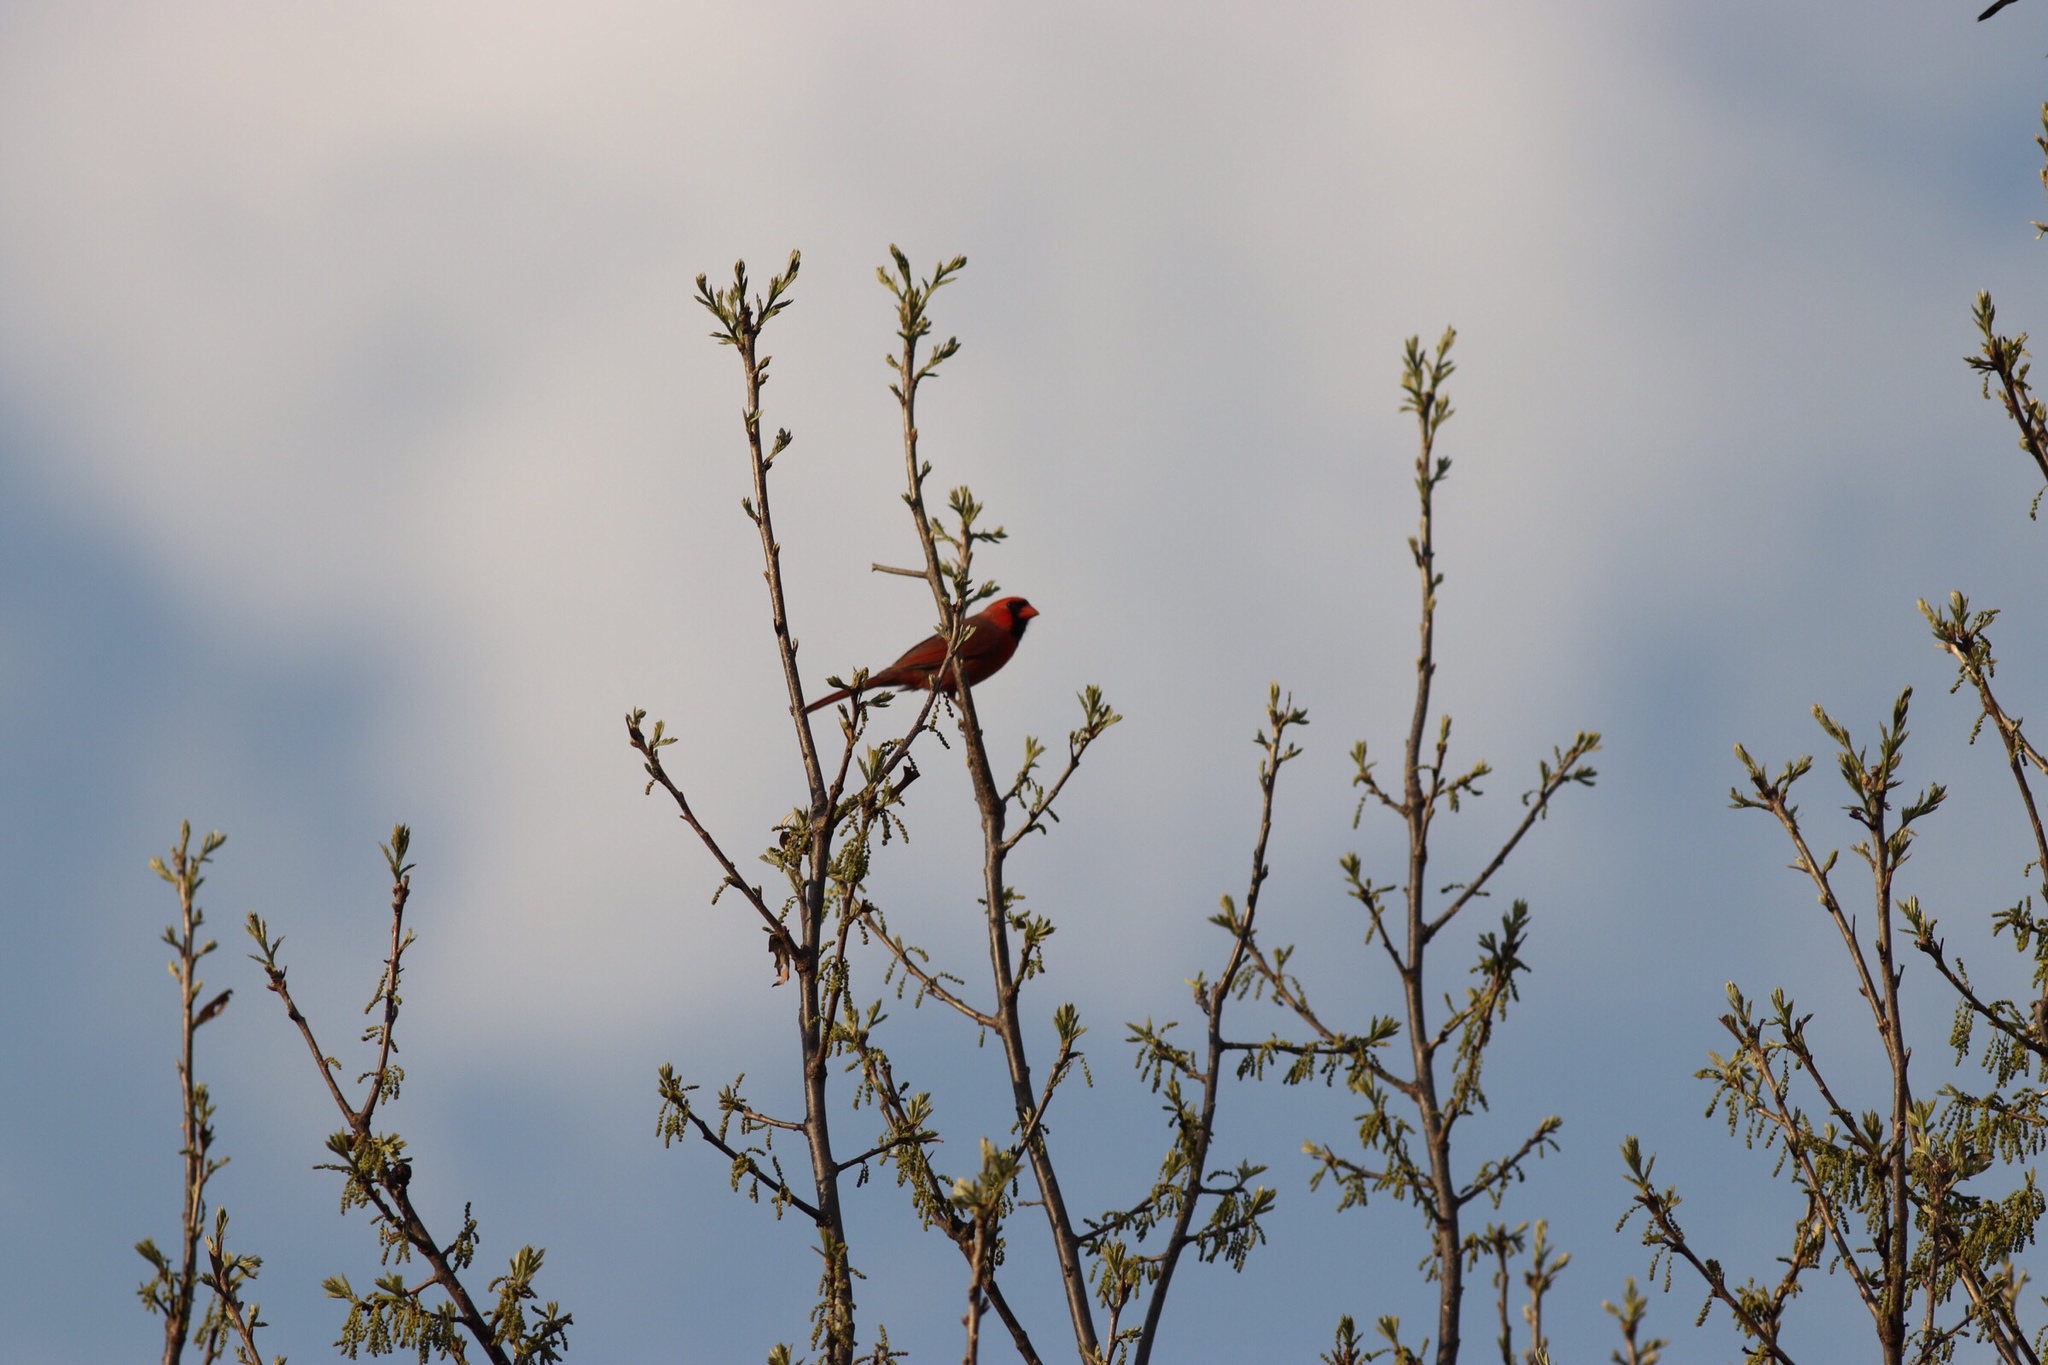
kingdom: Animalia
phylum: Chordata
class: Aves
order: Passeriformes
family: Cardinalidae
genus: Cardinalis
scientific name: Cardinalis cardinalis
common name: Northern cardinal
